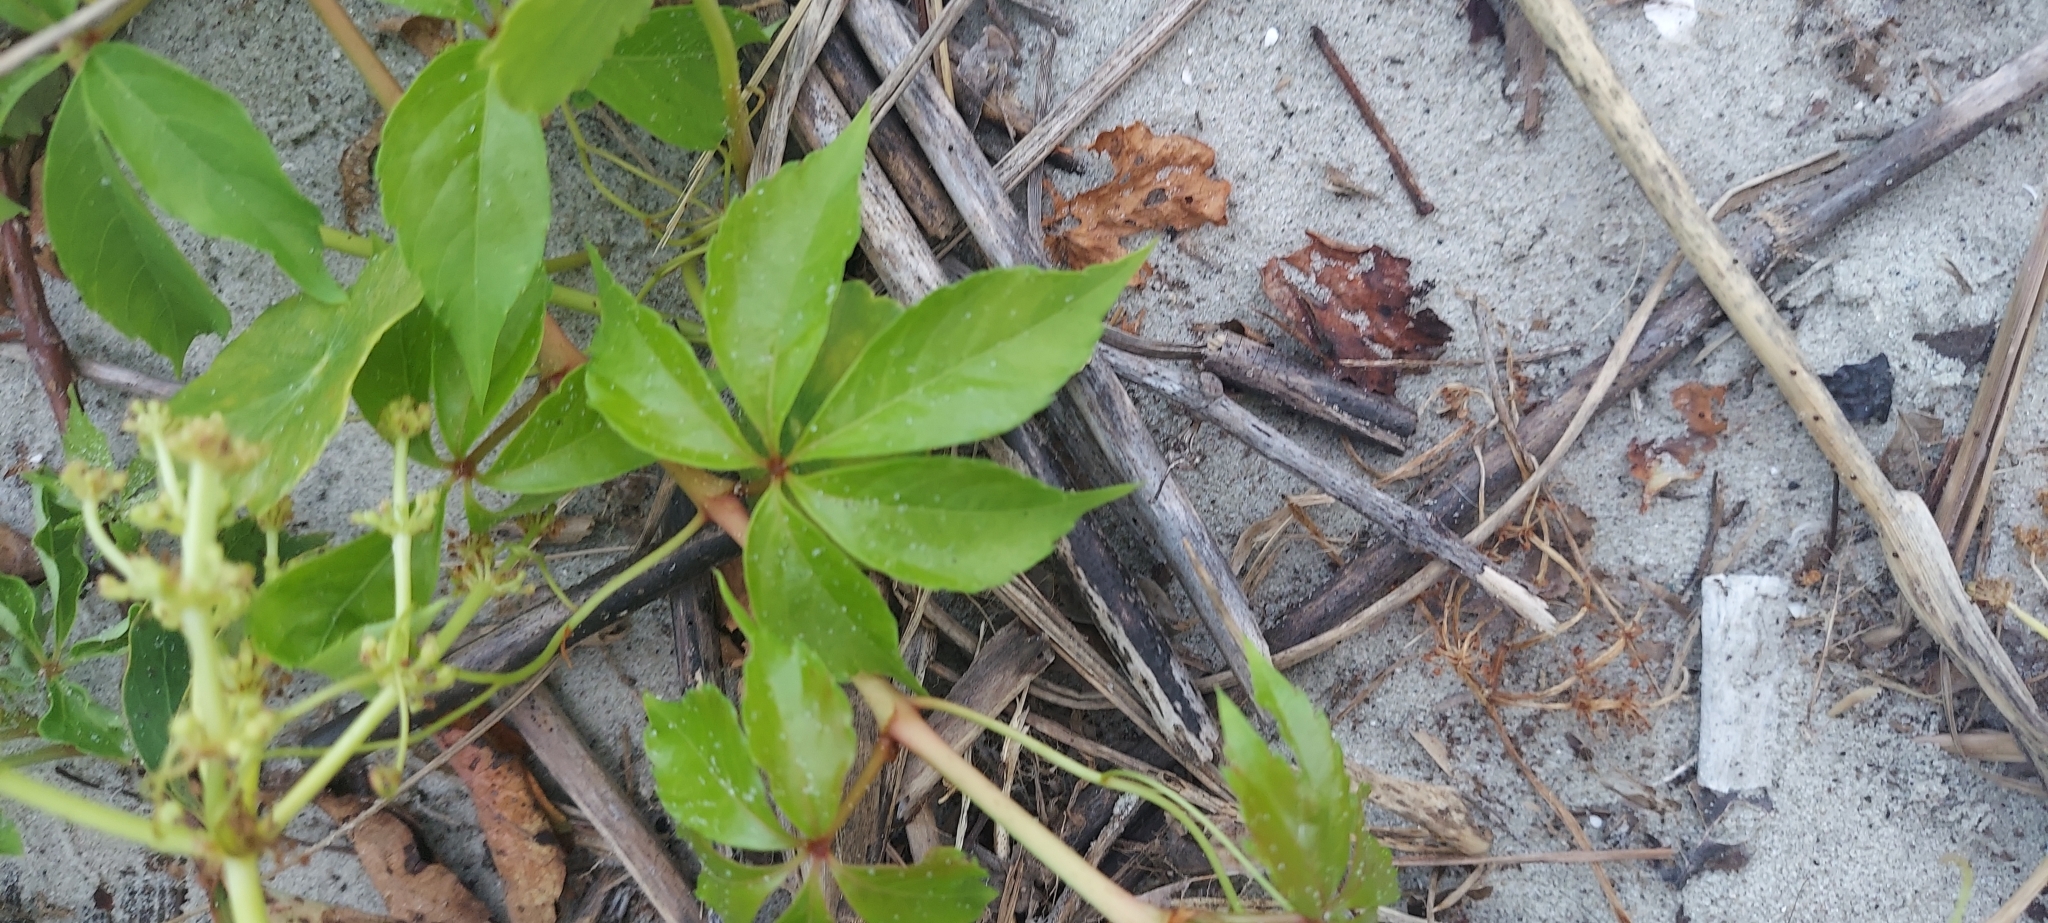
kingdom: Plantae
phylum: Tracheophyta
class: Magnoliopsida
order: Vitales
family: Vitaceae
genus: Parthenocissus
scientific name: Parthenocissus quinquefolia
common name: Virginia-creeper
